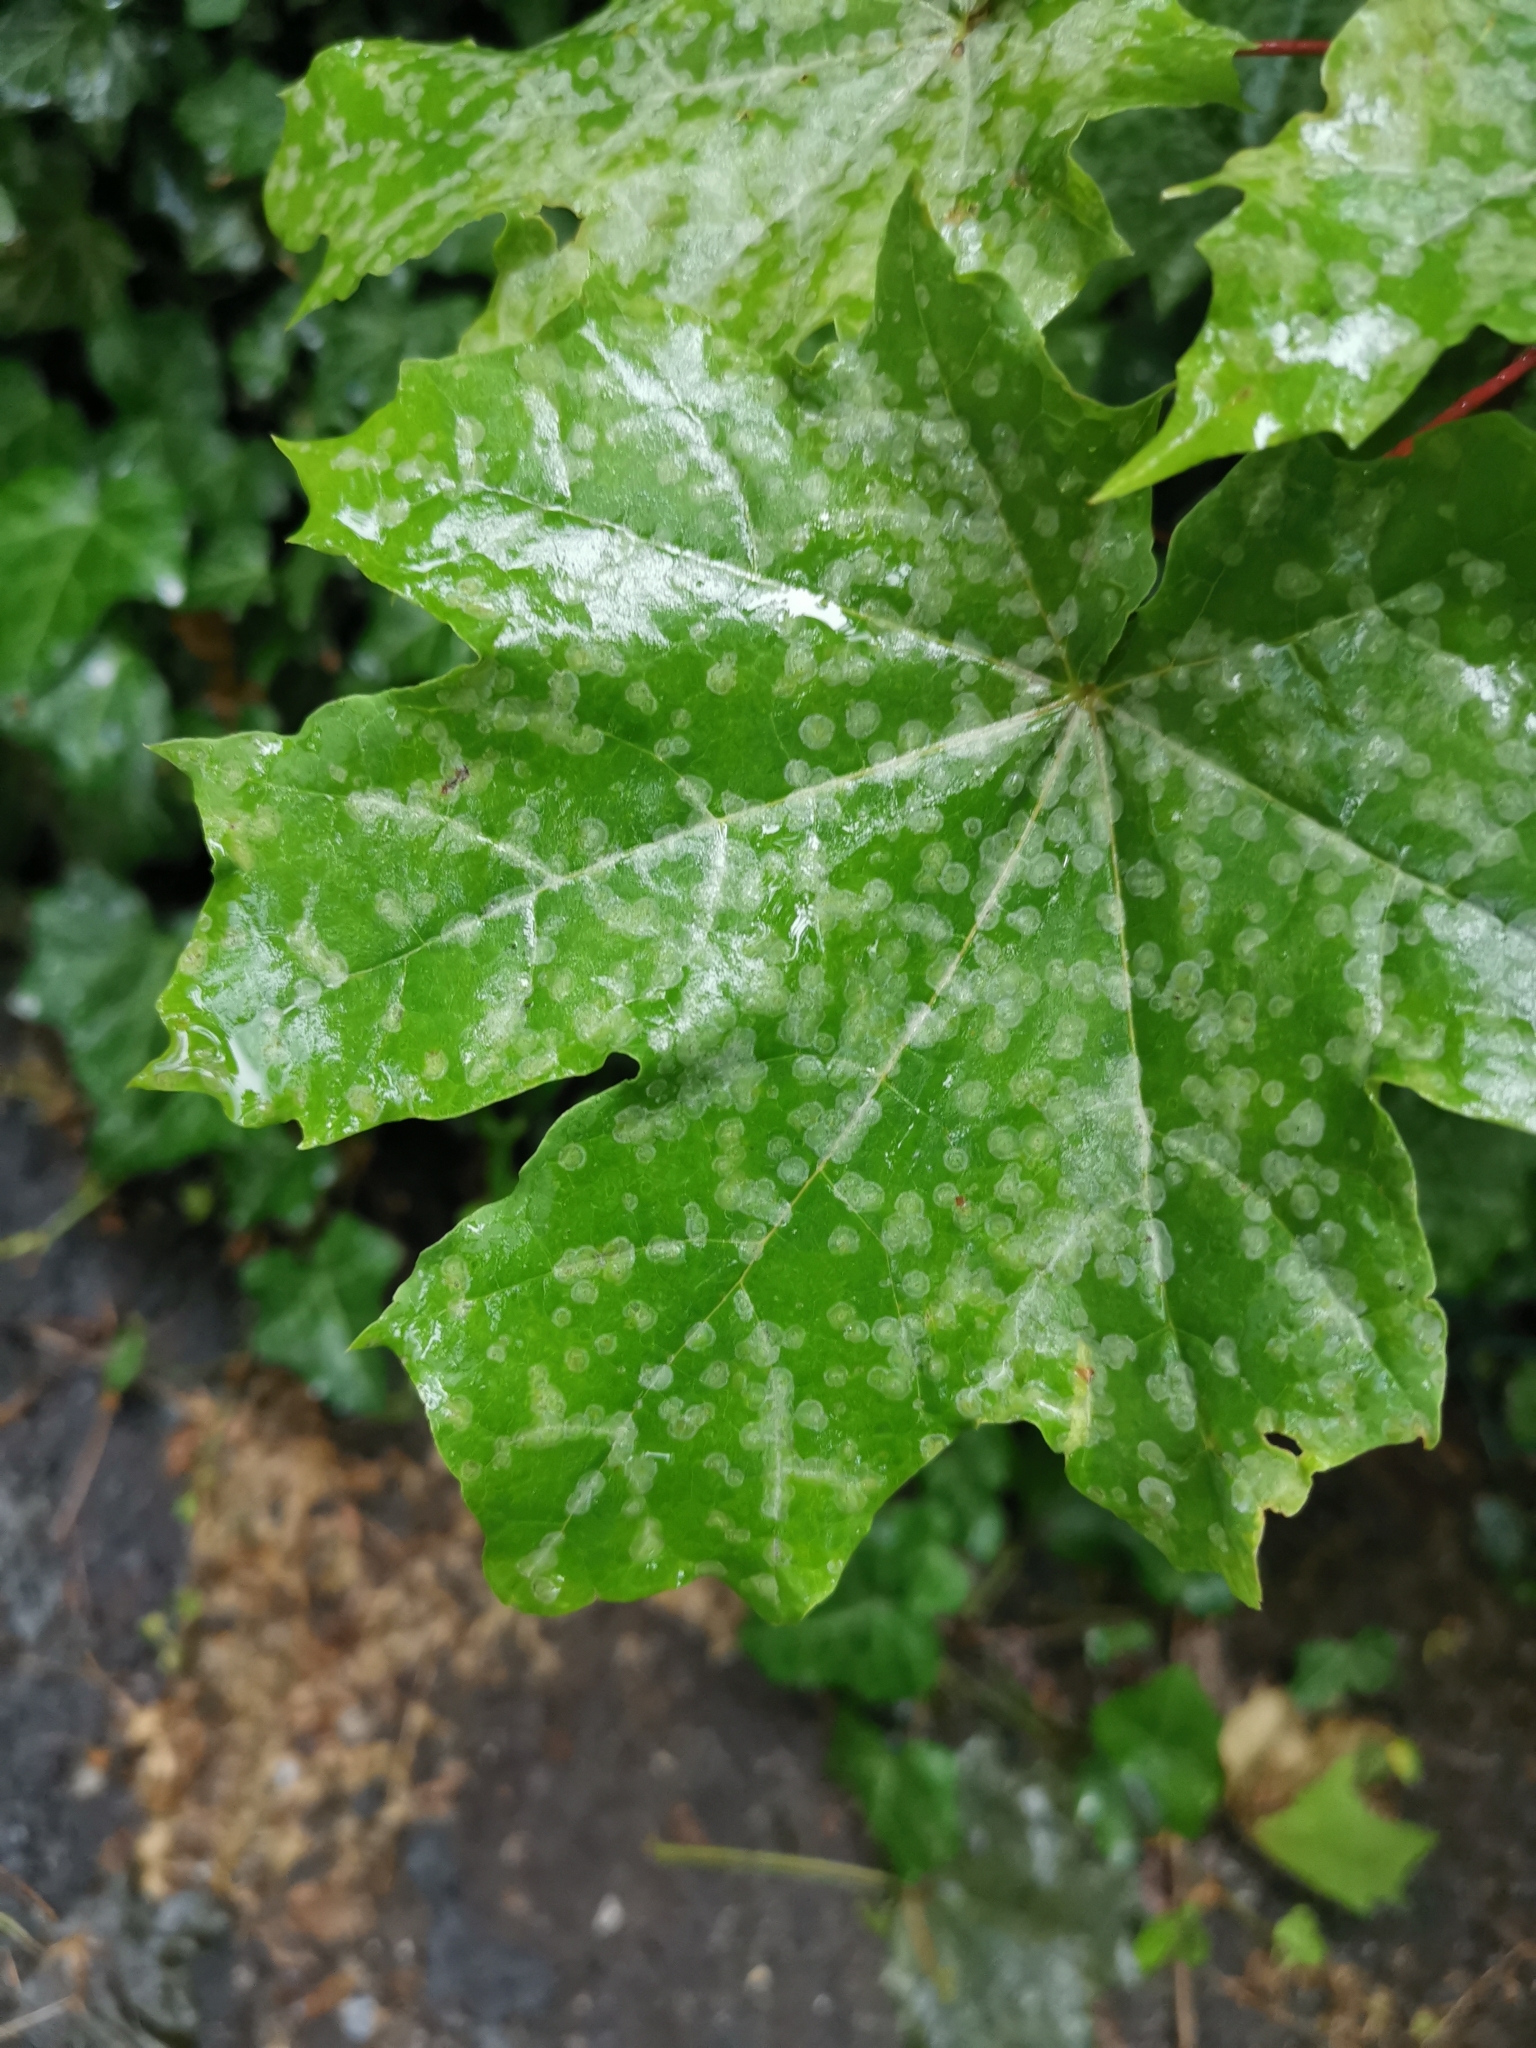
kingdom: Fungi
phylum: Ascomycota
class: Leotiomycetes
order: Helotiales
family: Erysiphaceae
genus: Sawadaea
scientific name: Sawadaea tulasnei
